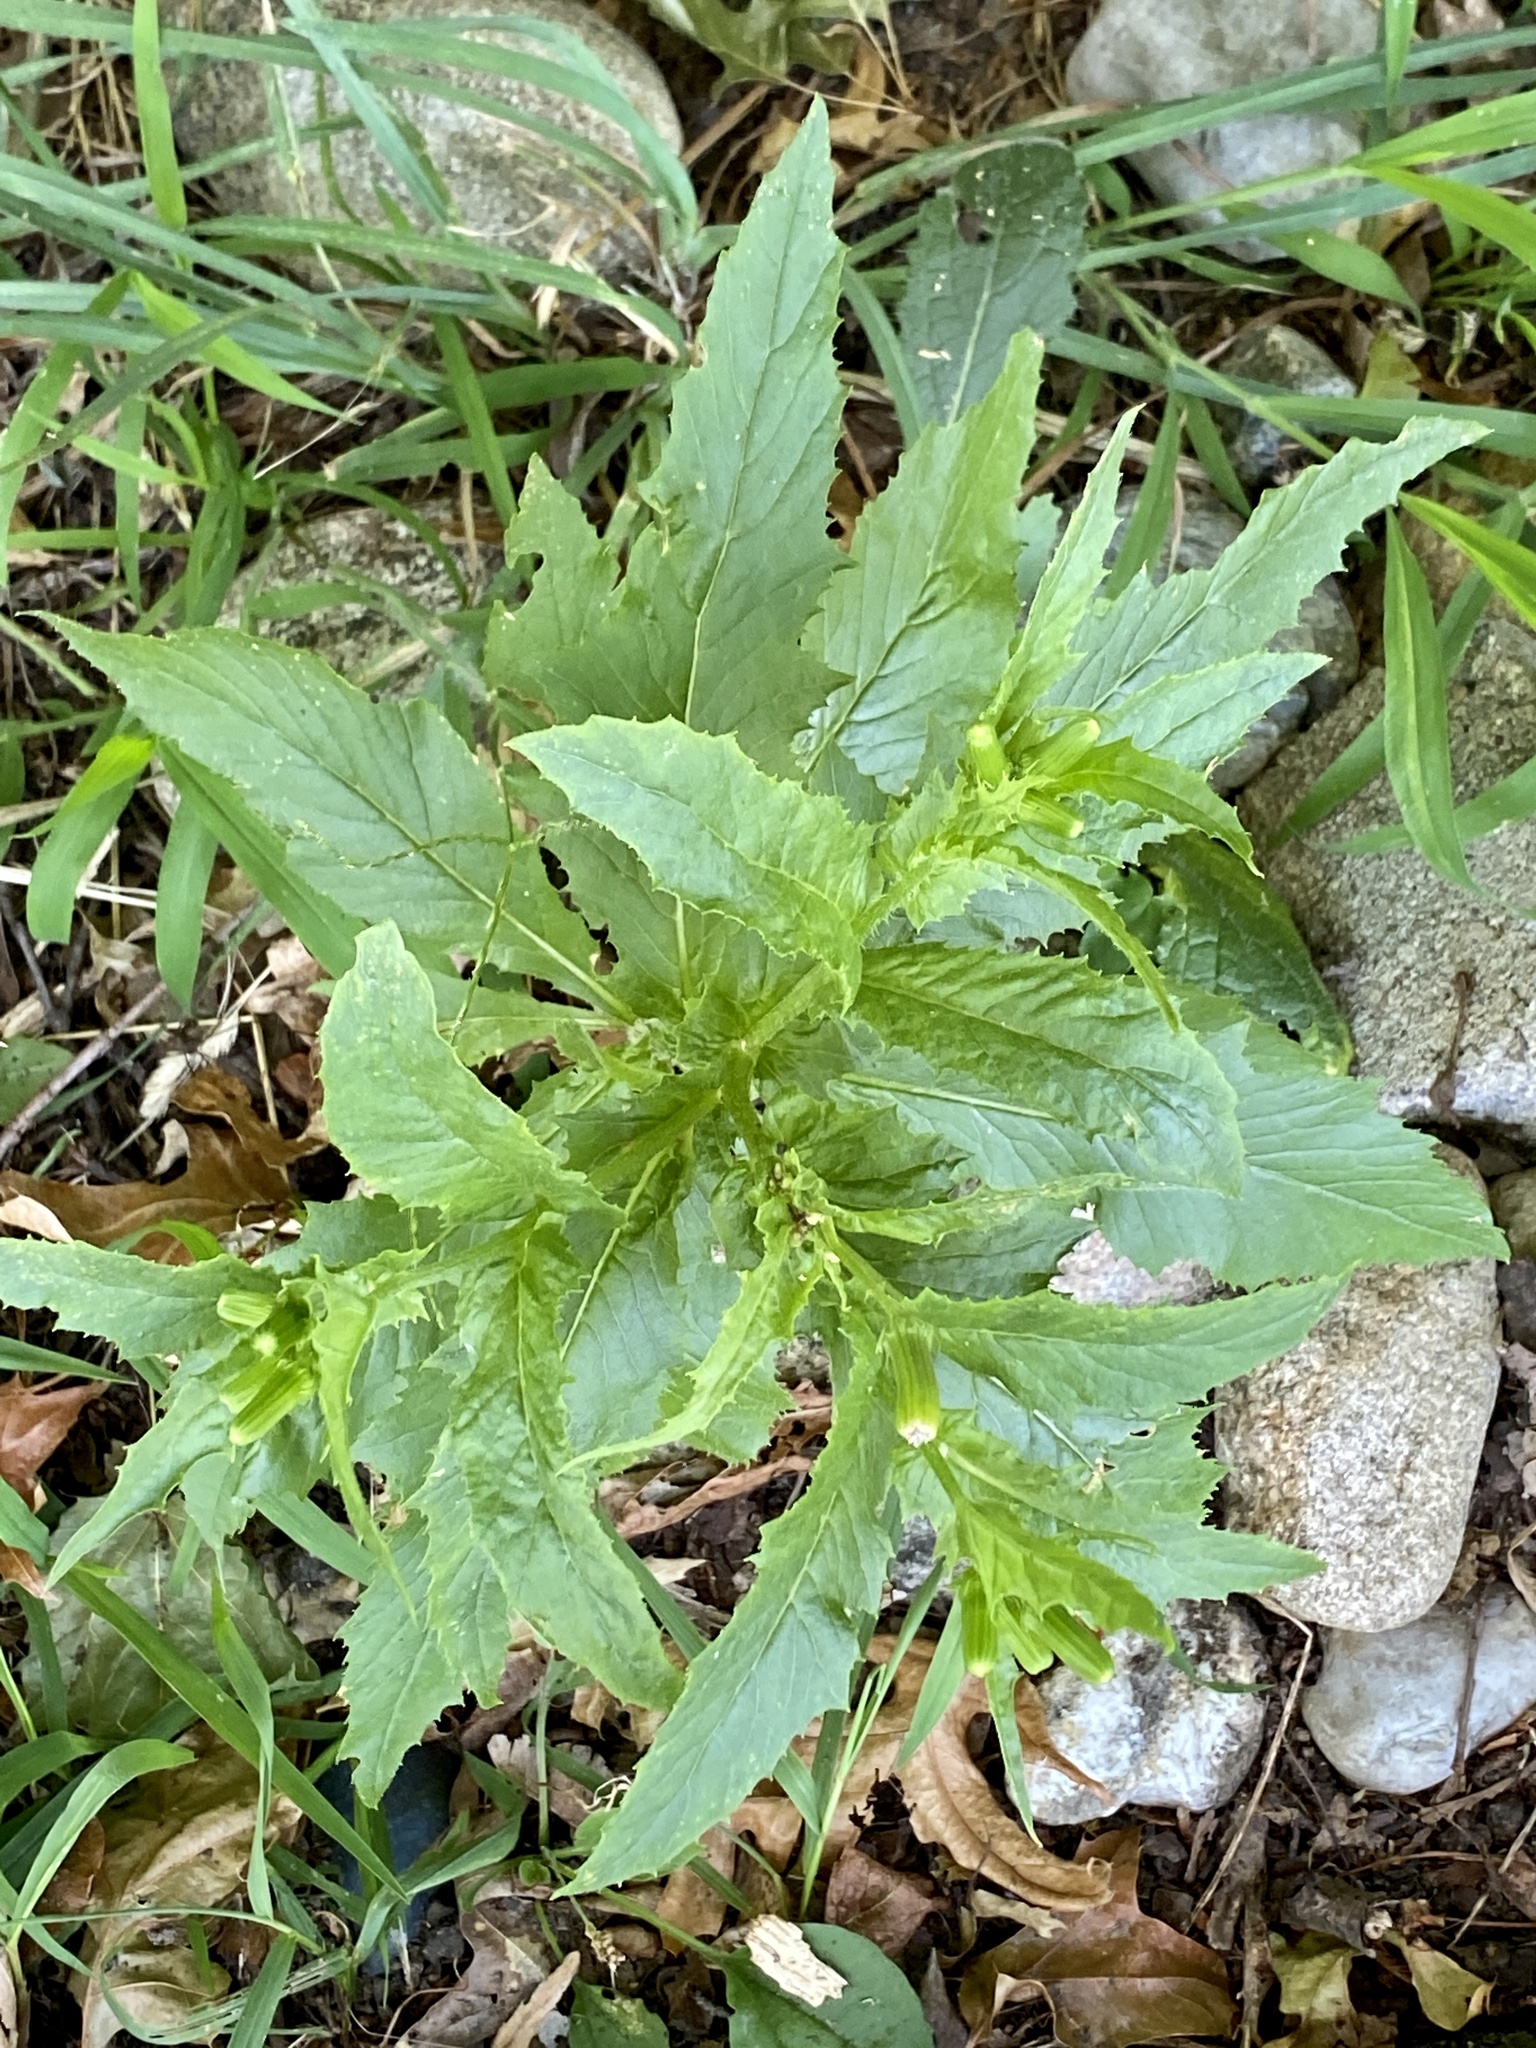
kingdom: Plantae
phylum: Tracheophyta
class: Magnoliopsida
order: Asterales
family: Asteraceae
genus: Erechtites
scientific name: Erechtites hieraciifolius
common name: American burnweed
